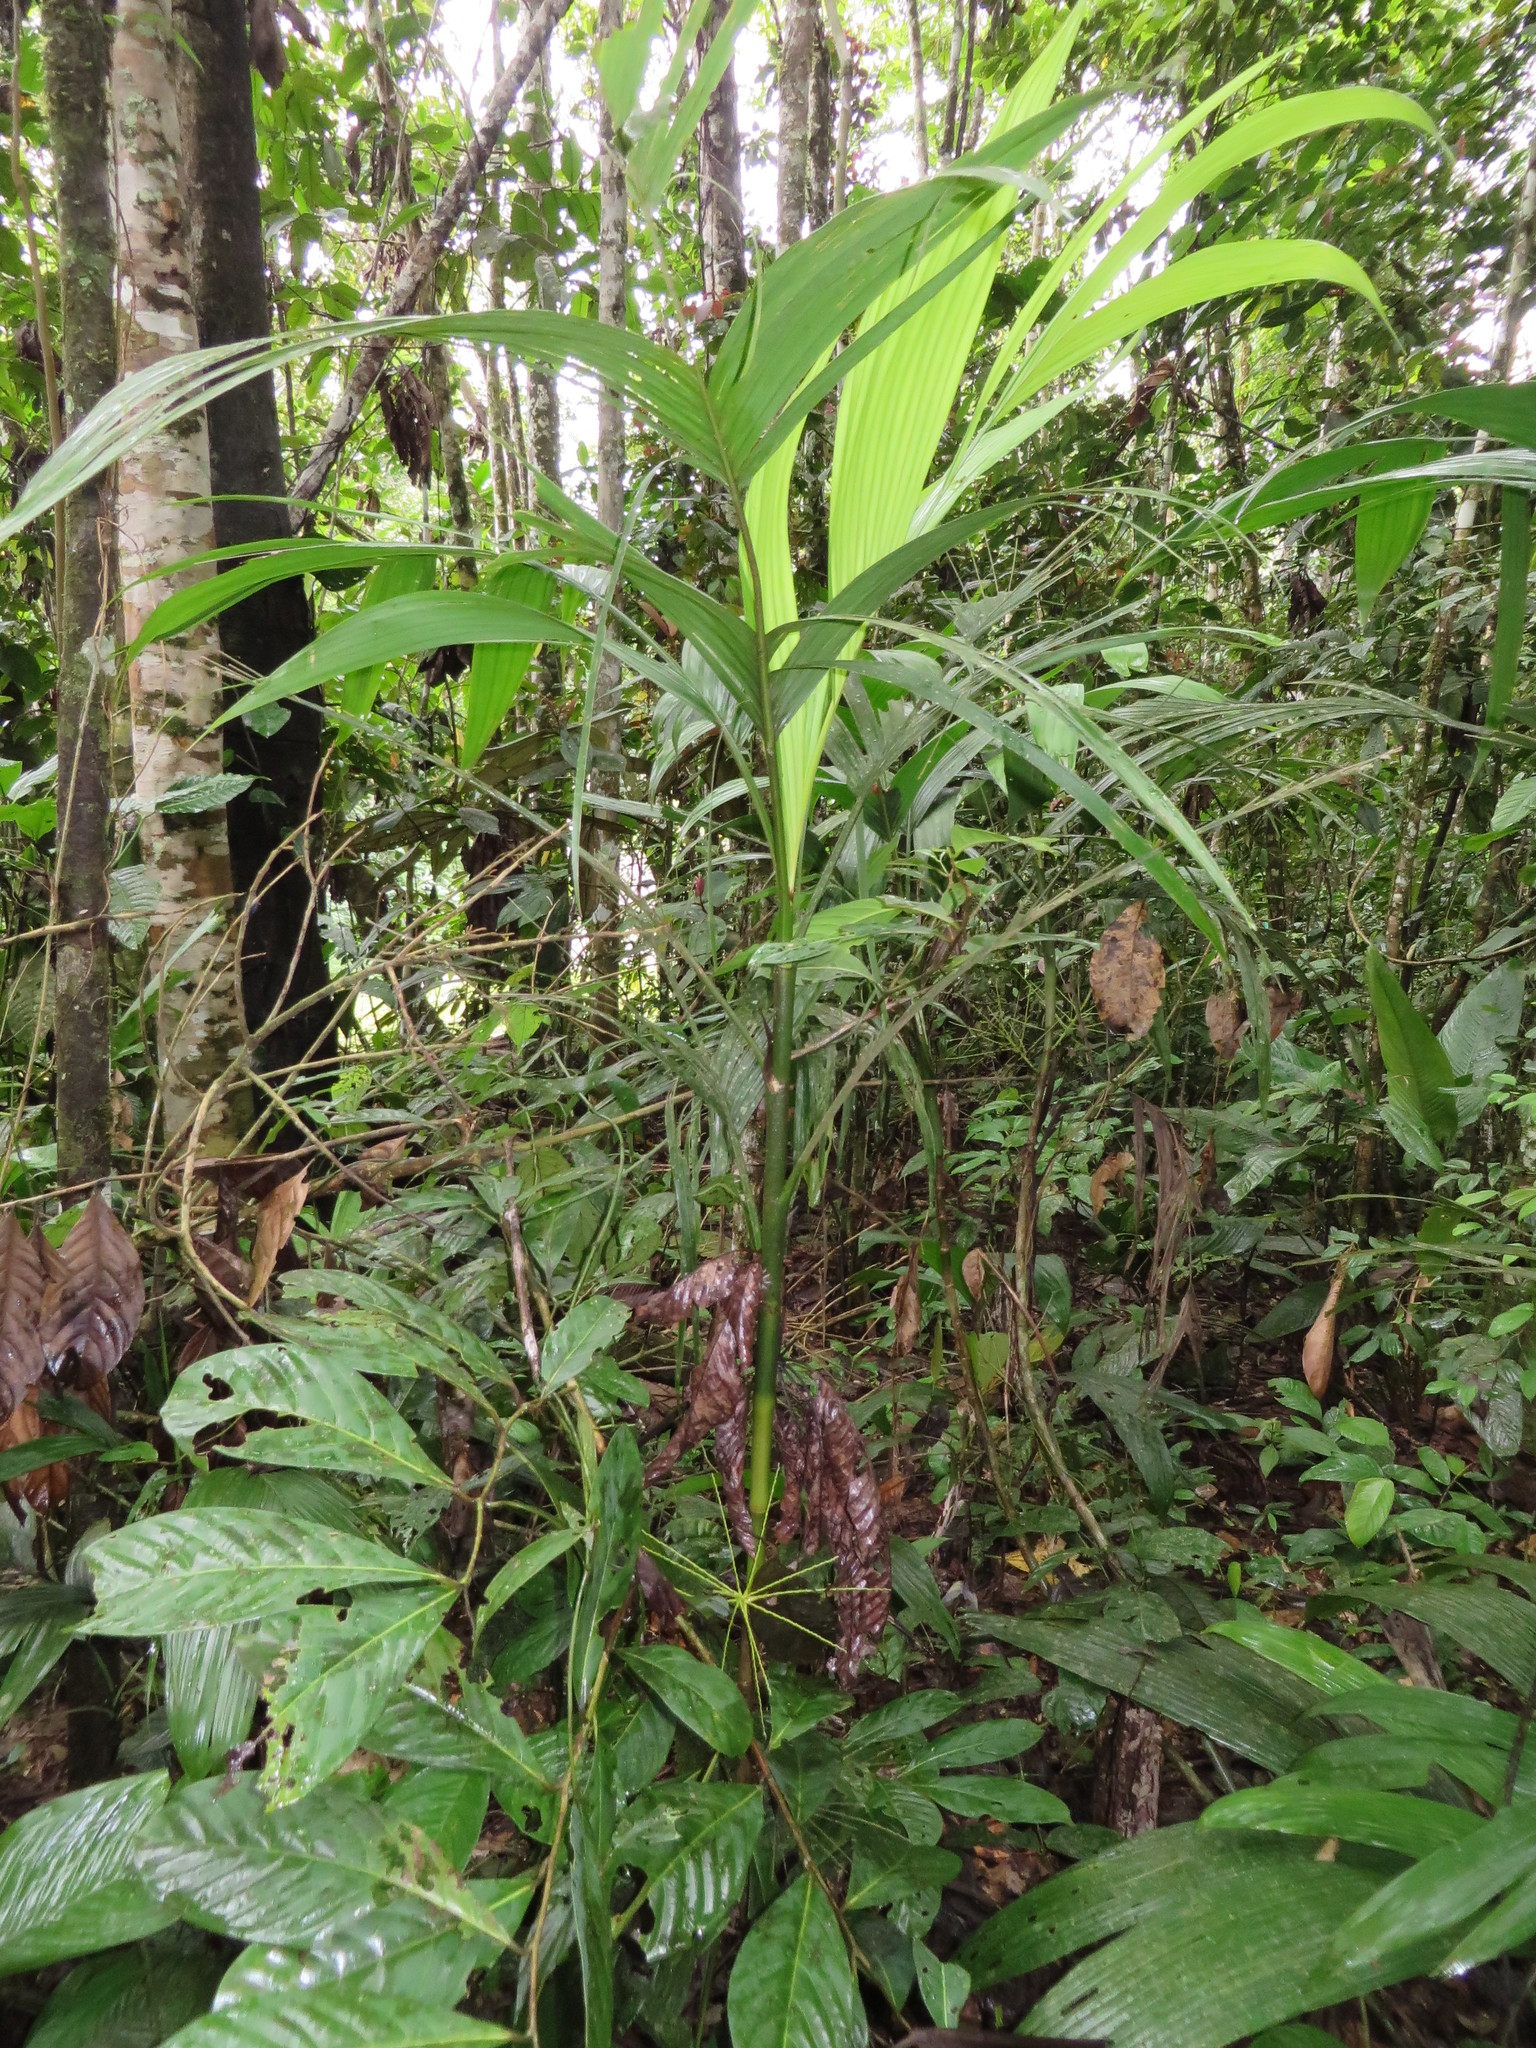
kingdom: Plantae
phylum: Tracheophyta
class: Liliopsida
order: Arecales
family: Arecaceae
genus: Hyospathe
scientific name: Hyospathe elegans
